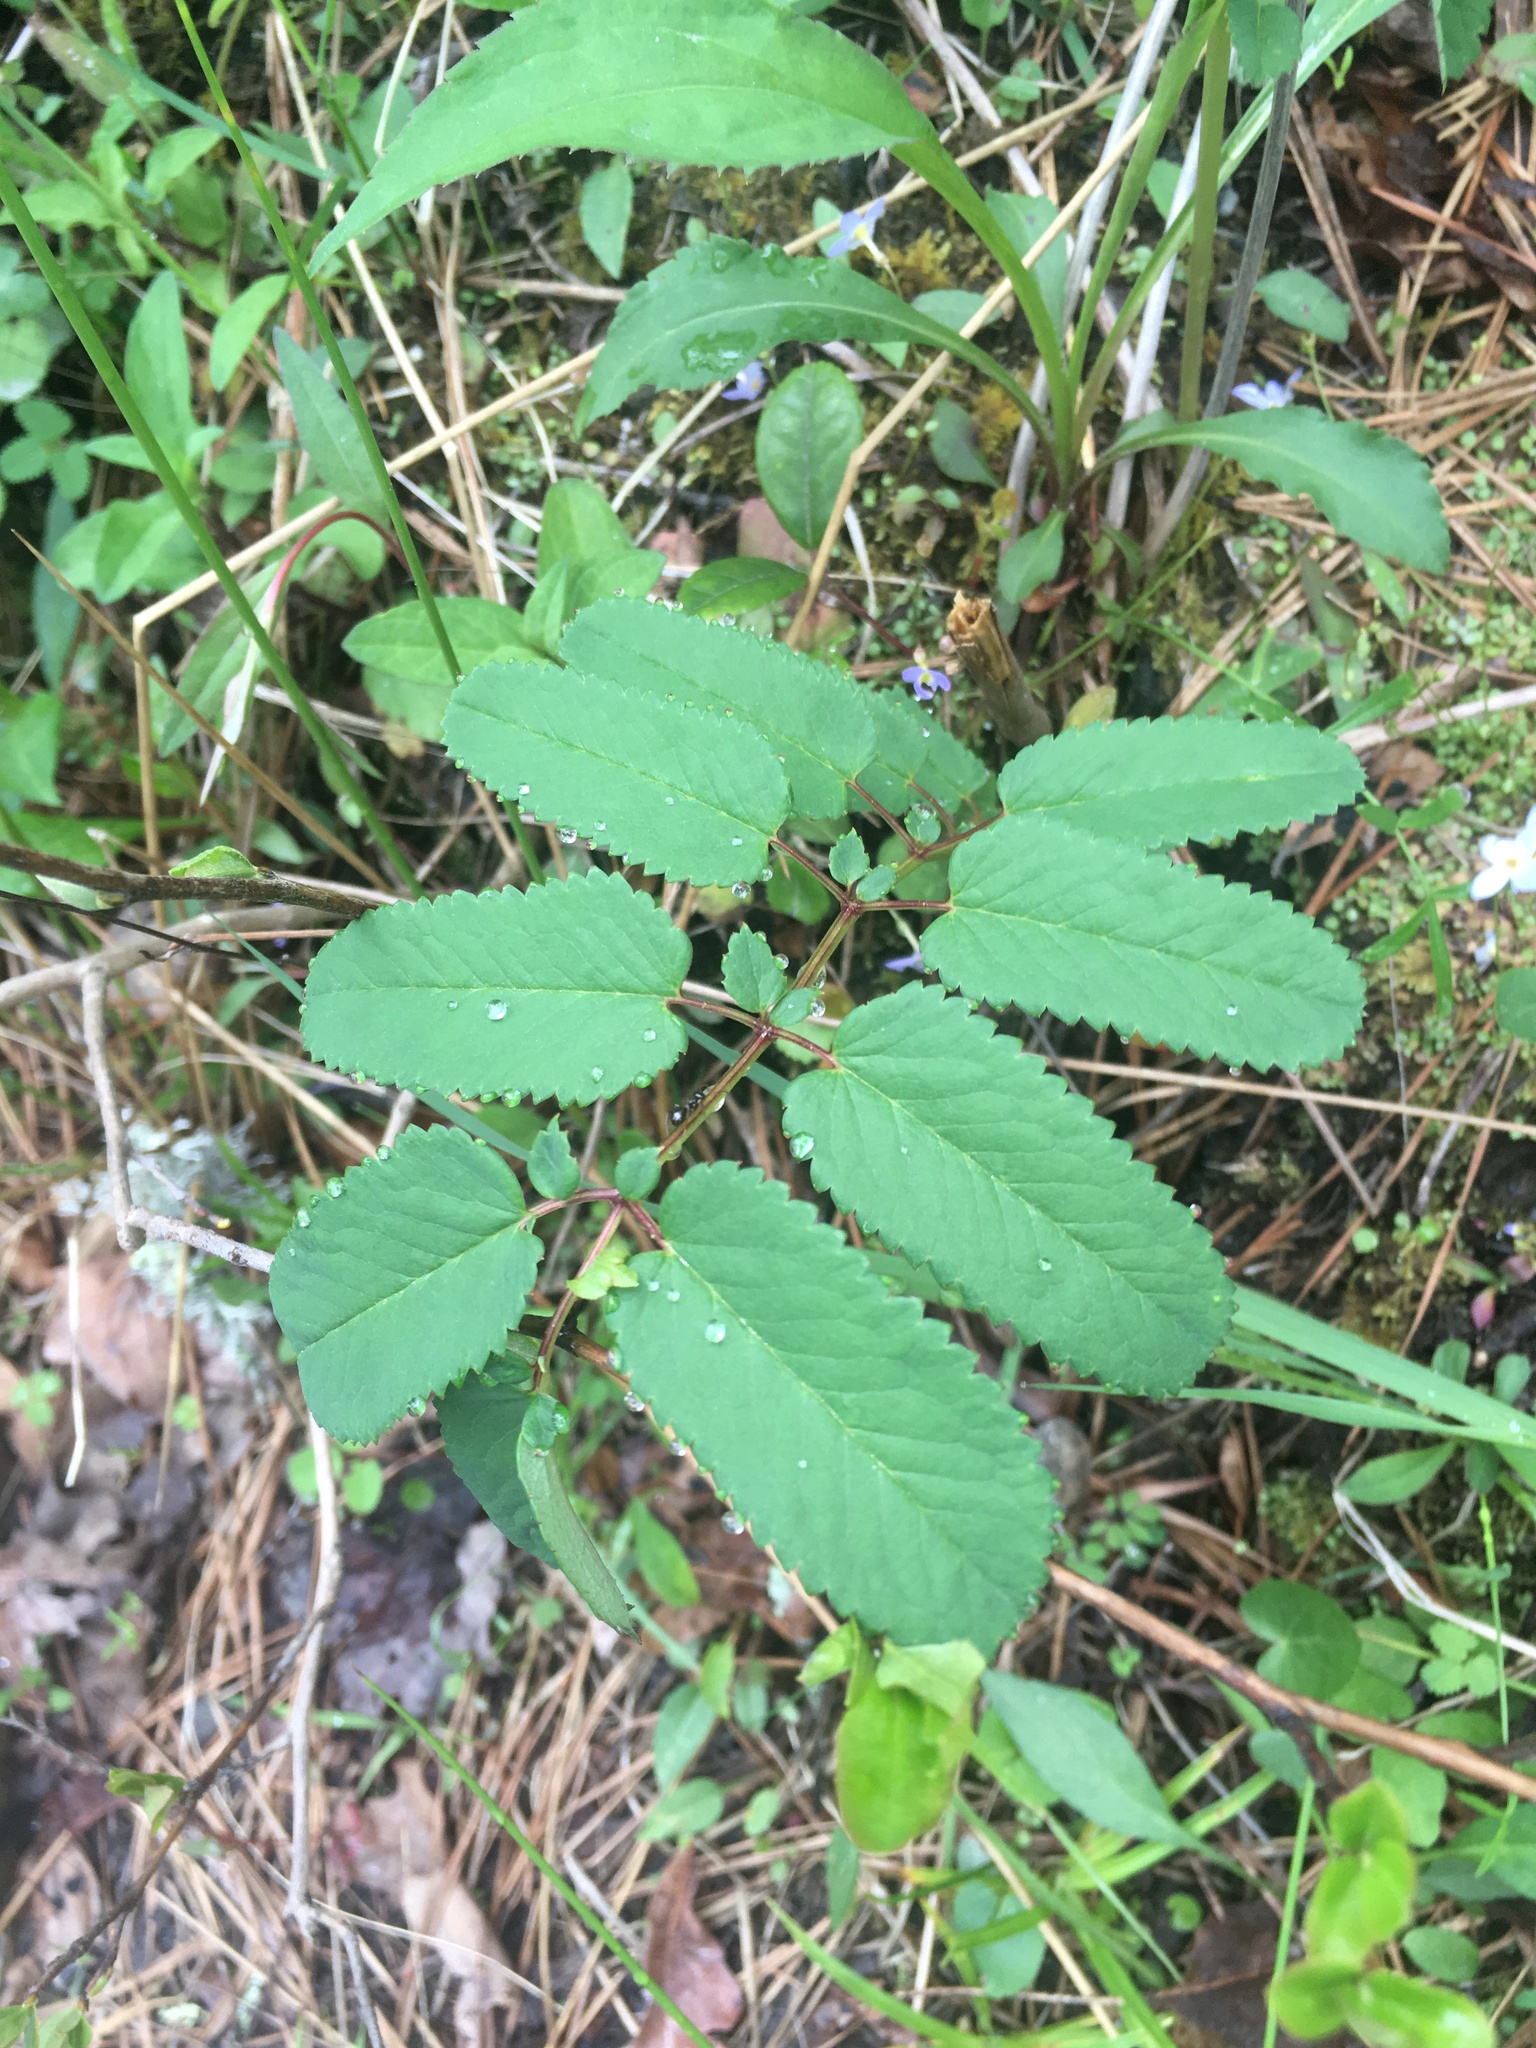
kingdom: Plantae
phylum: Tracheophyta
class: Magnoliopsida
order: Rosales
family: Rosaceae
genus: Sanguisorba
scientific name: Sanguisorba canadensis
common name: White burnet
